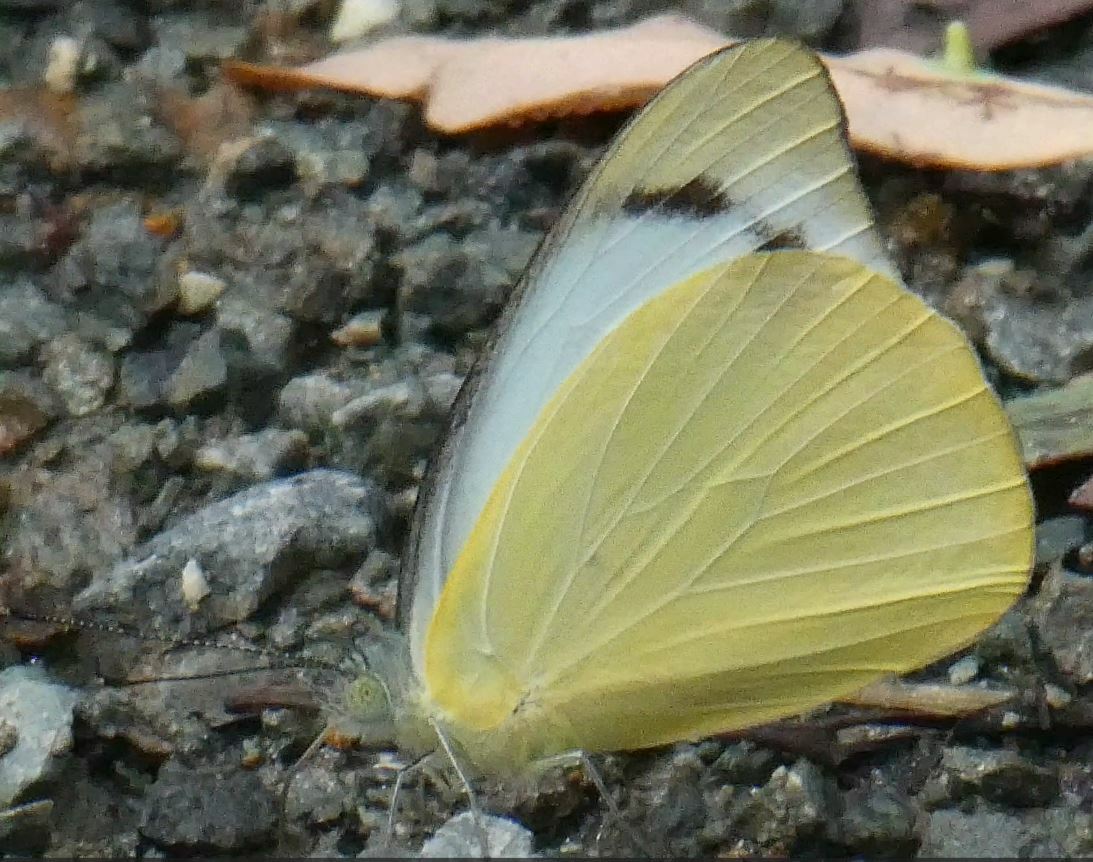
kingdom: Animalia
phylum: Arthropoda
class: Insecta
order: Lepidoptera
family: Pieridae
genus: Appias
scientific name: Appias paulina
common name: Ceylon lesser albatross
